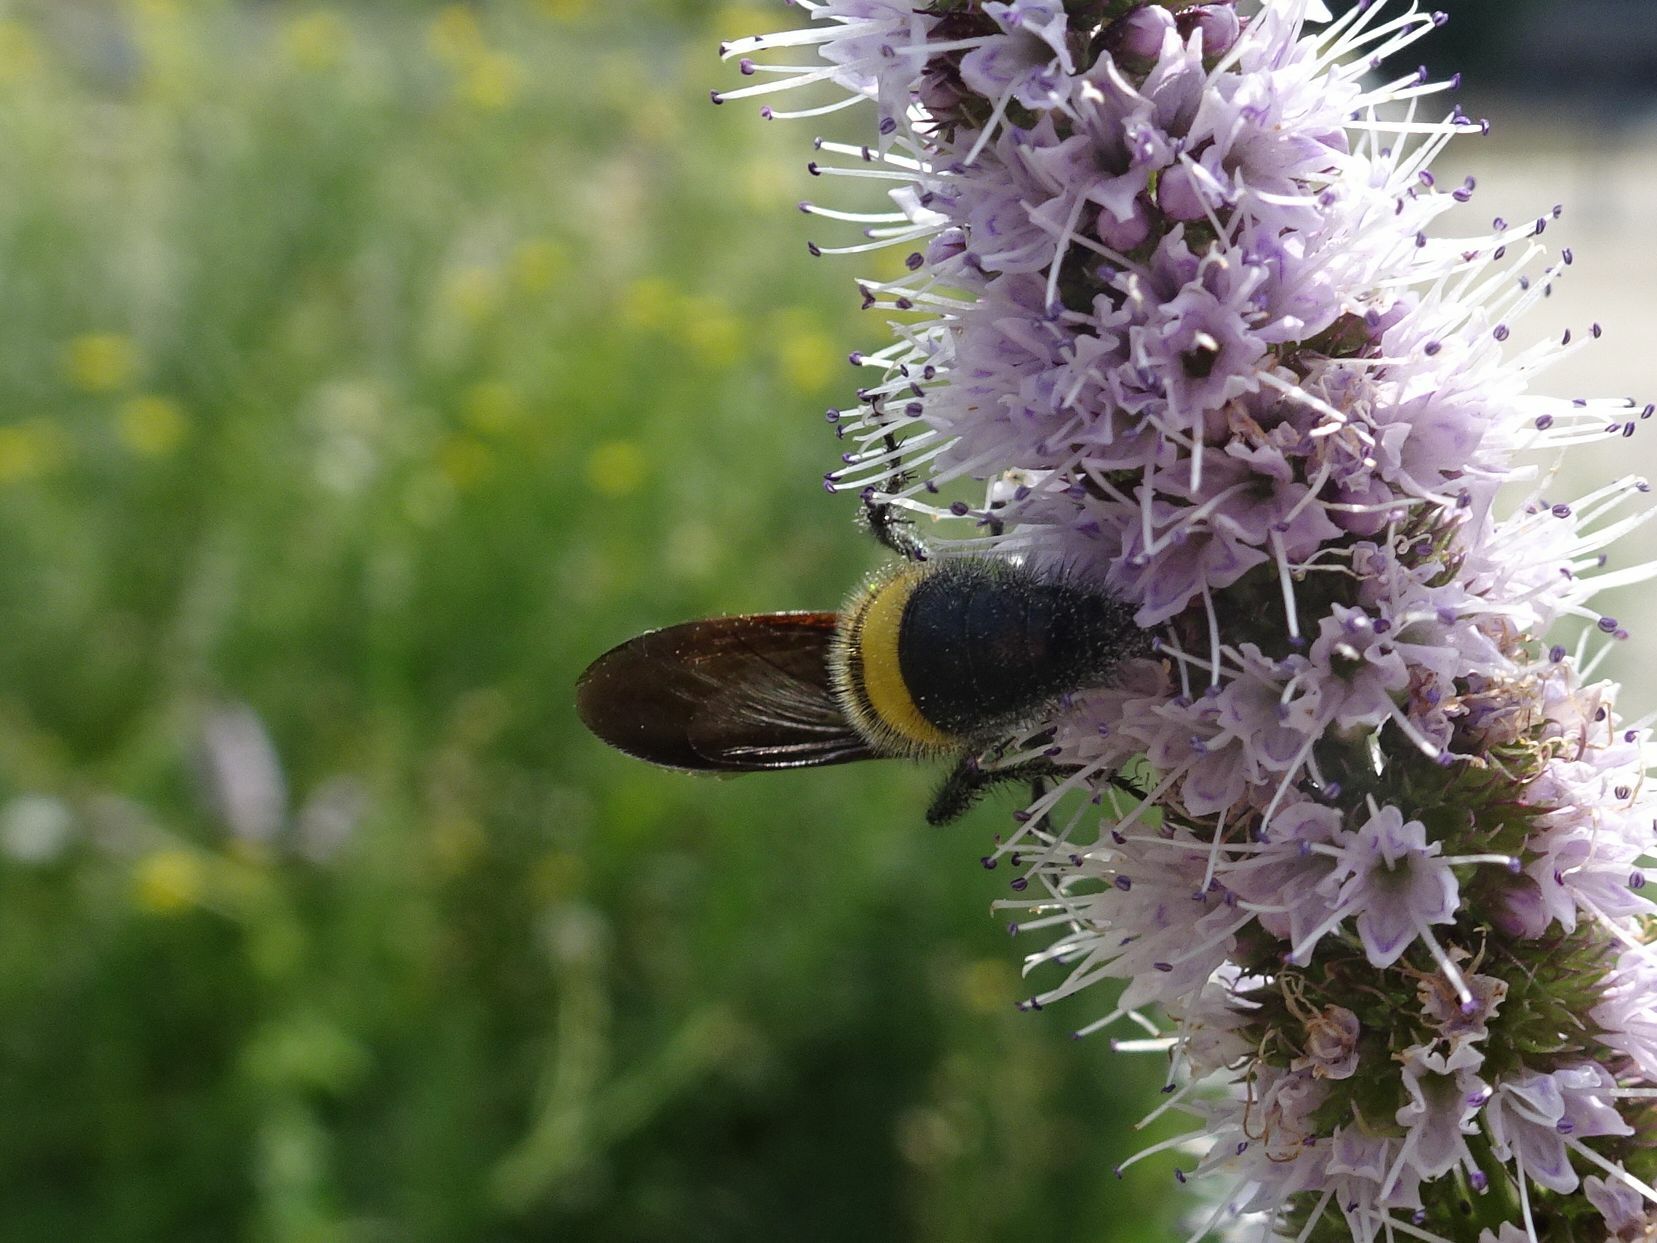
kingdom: Animalia
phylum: Arthropoda
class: Insecta
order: Hymenoptera
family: Scoliidae
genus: Scolia
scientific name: Scolia hirta
